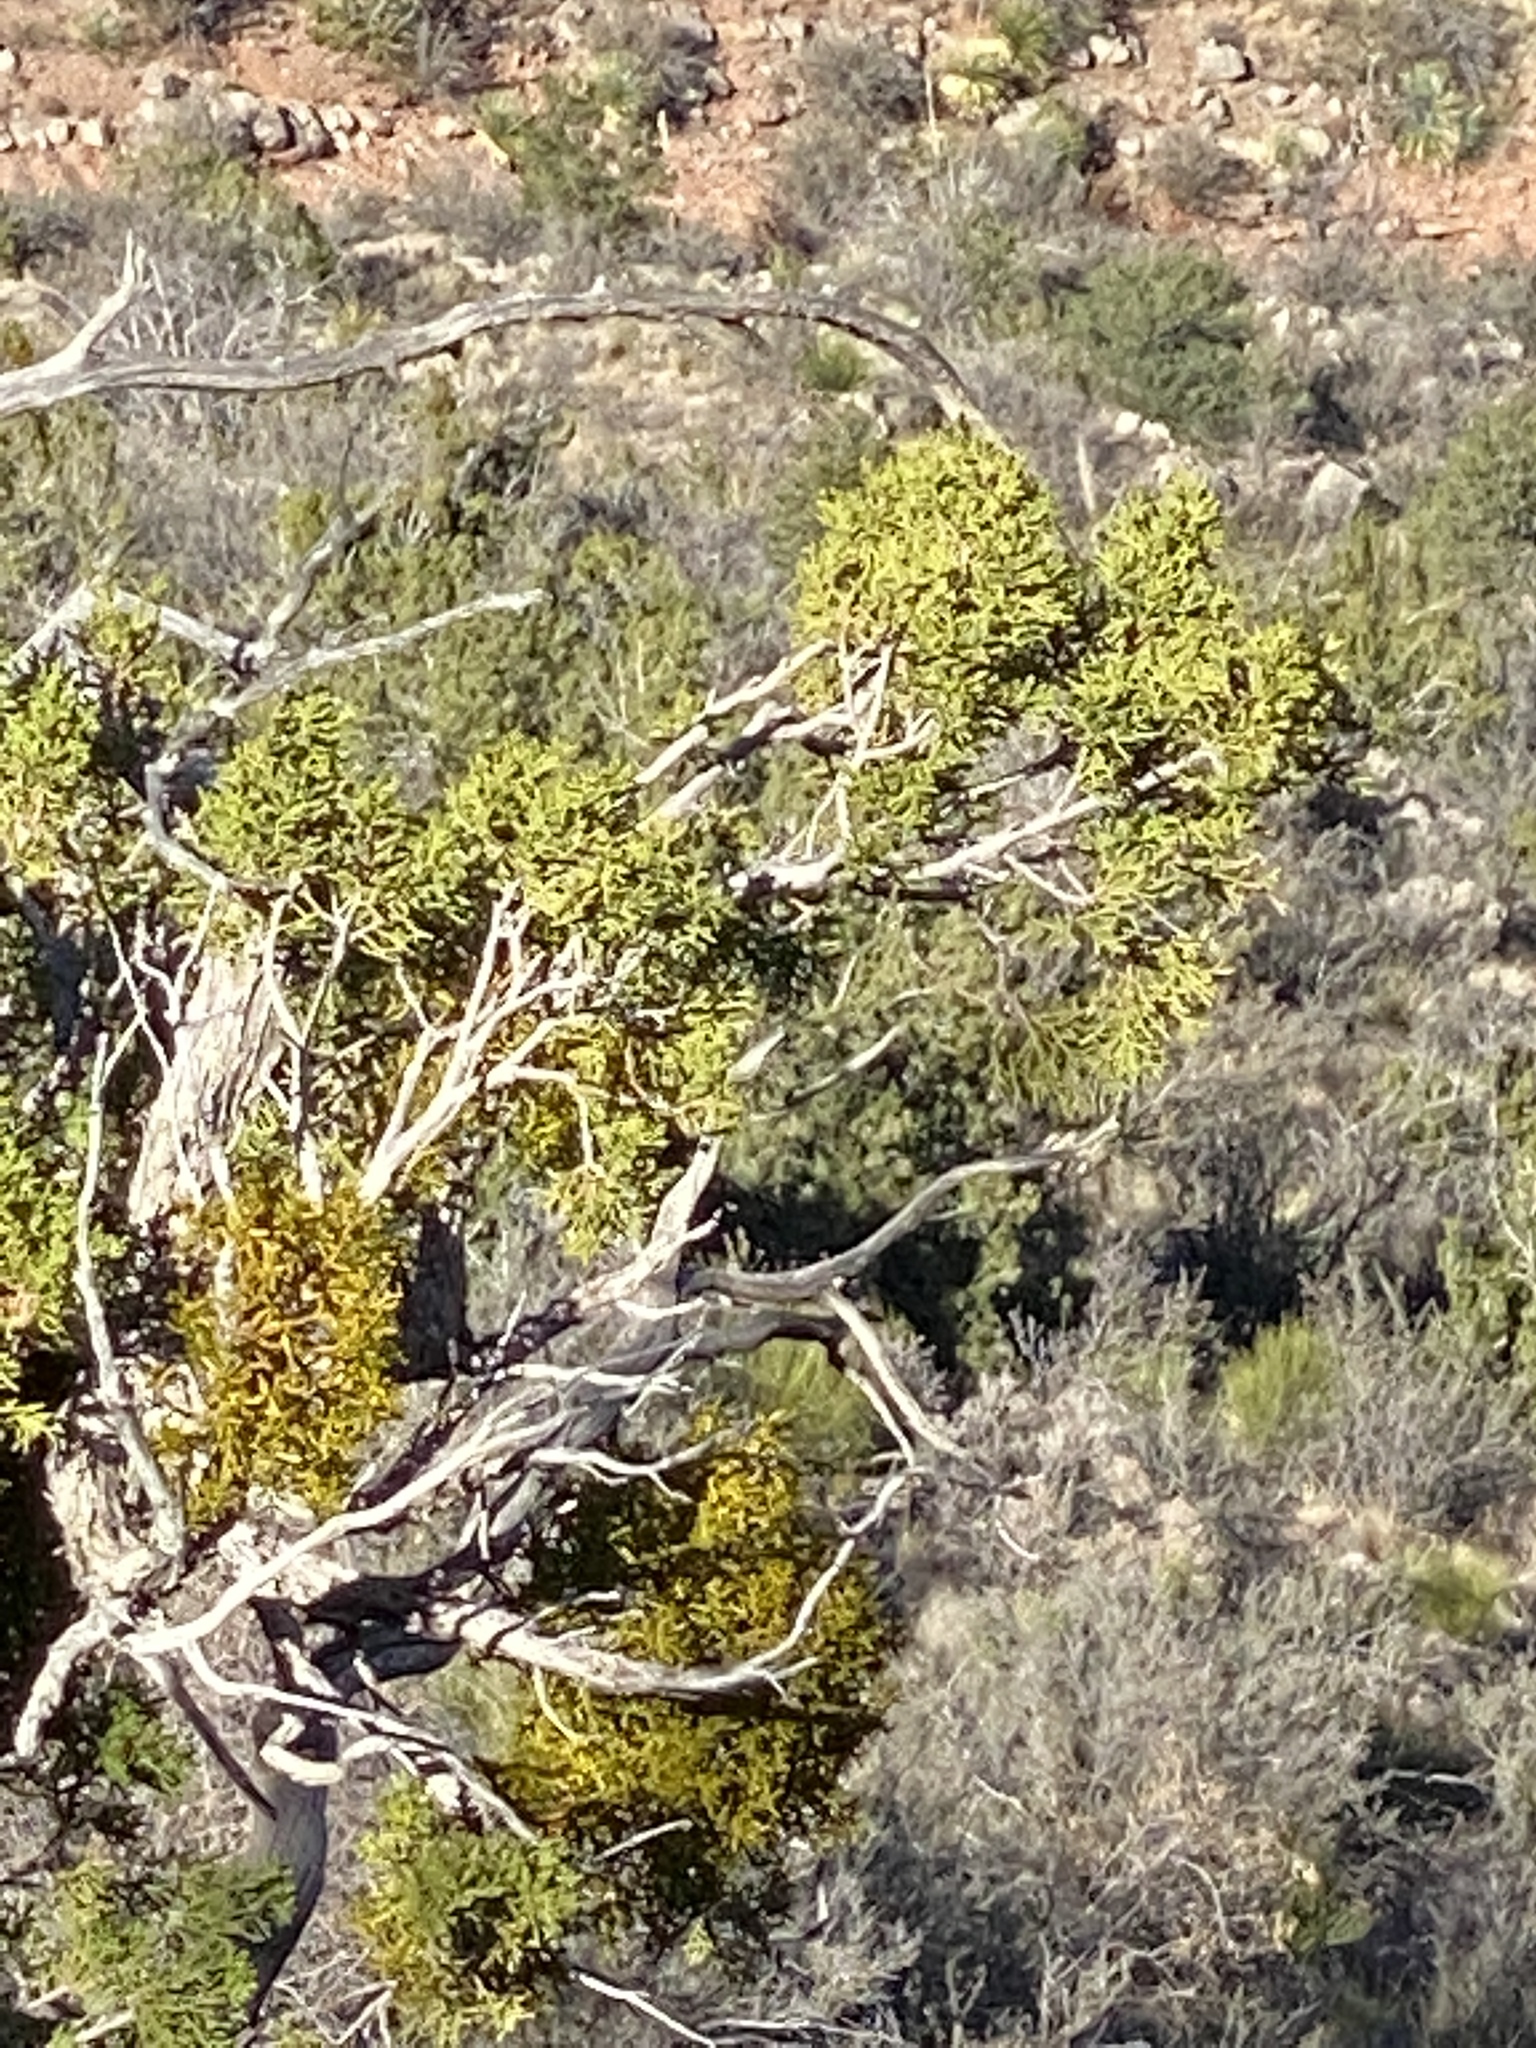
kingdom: Plantae
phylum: Tracheophyta
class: Pinopsida
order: Pinales
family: Cupressaceae
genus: Juniperus
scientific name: Juniperus monosperma
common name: One-seed juniper
